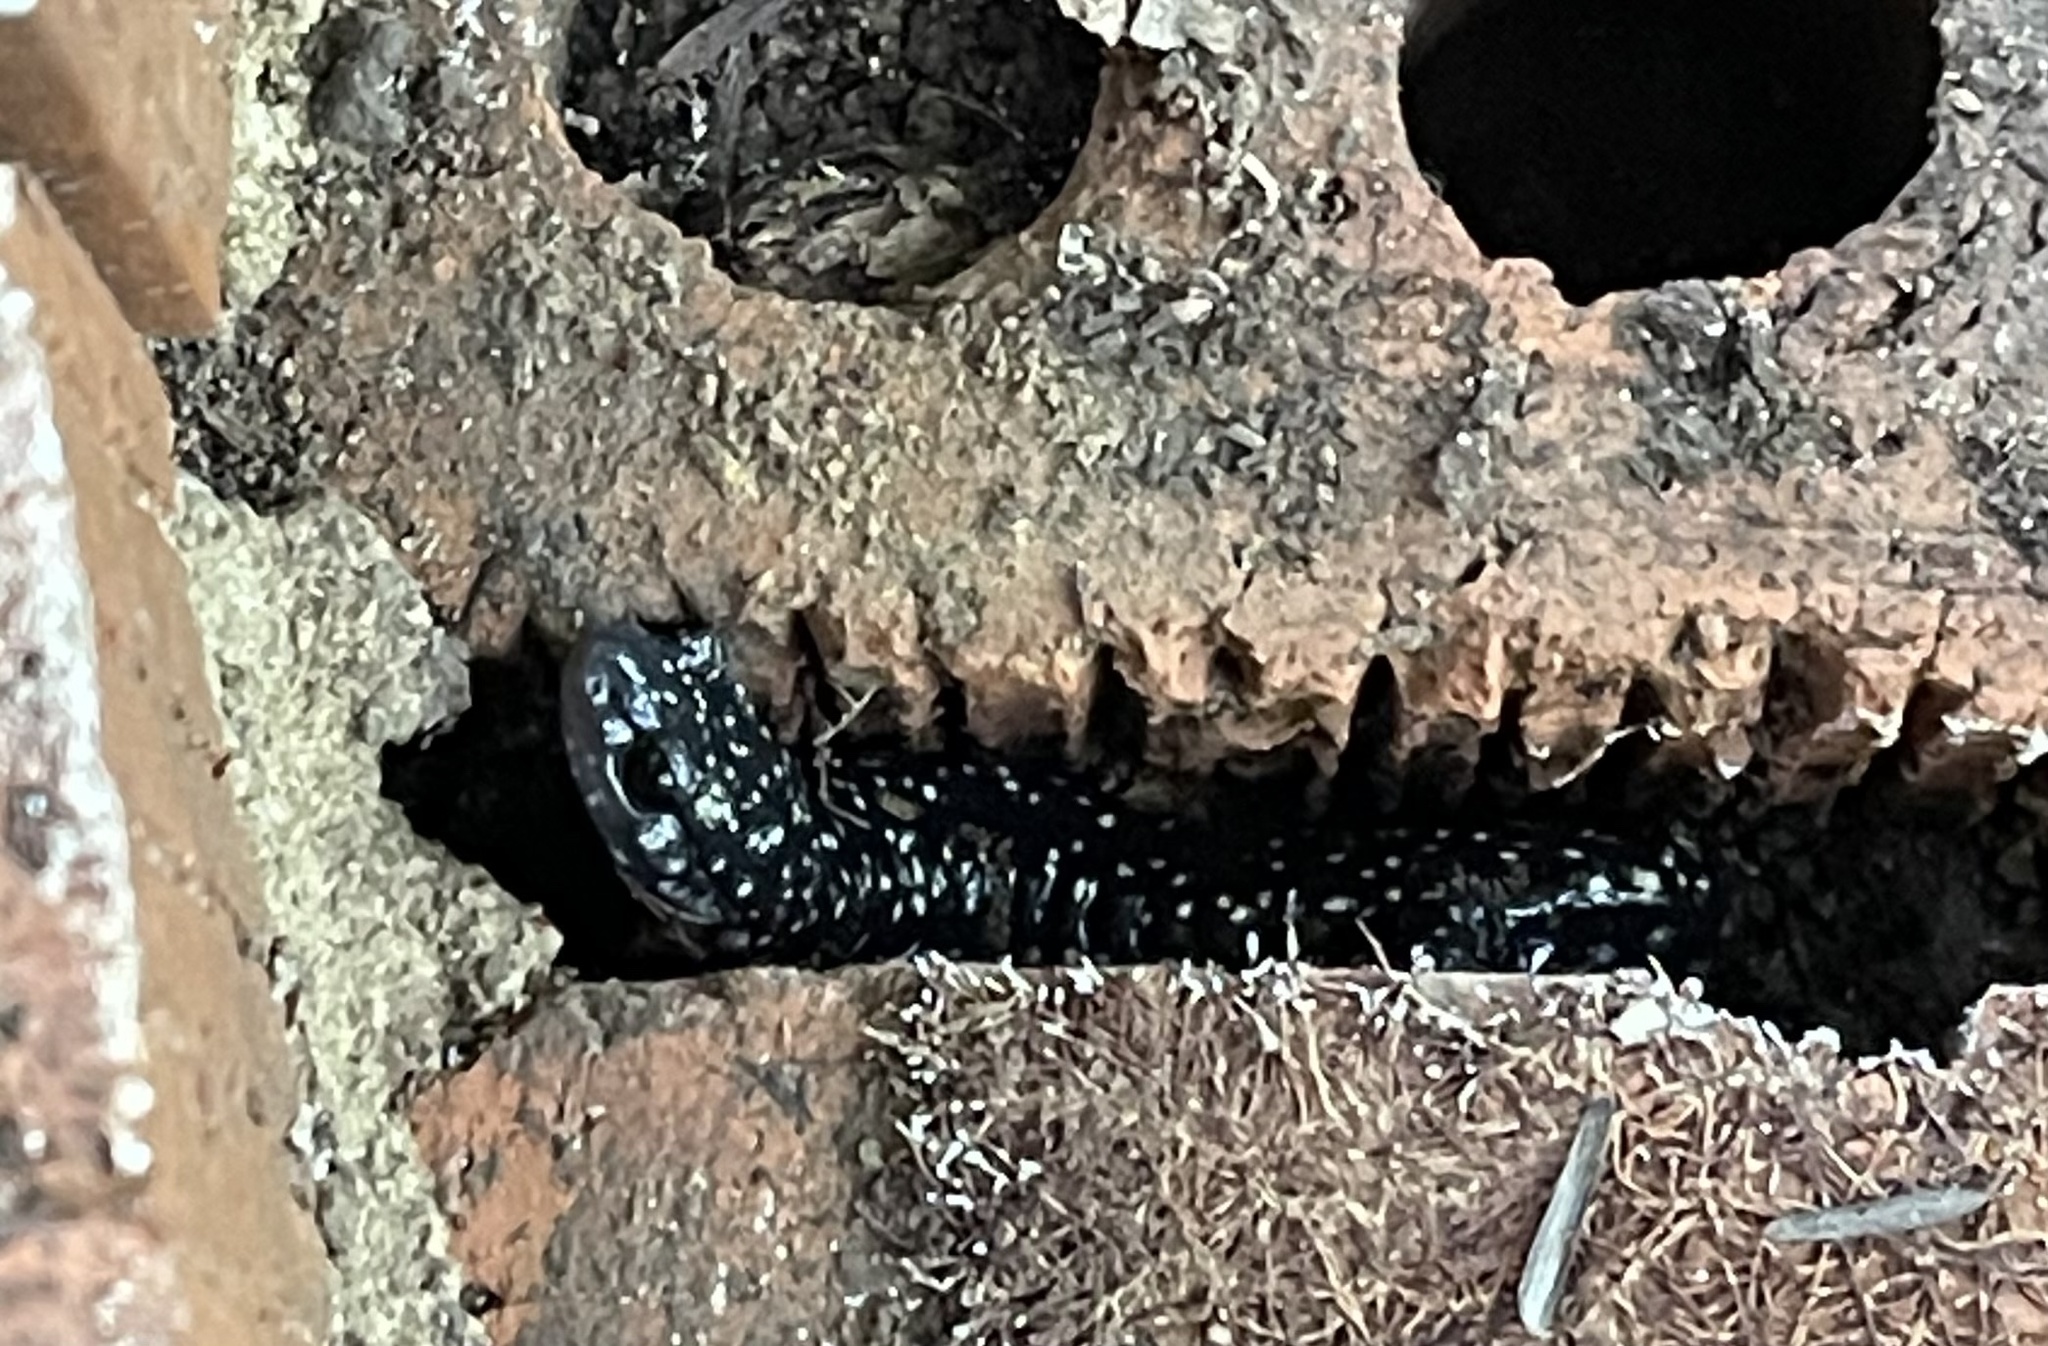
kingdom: Animalia
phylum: Chordata
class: Amphibia
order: Caudata
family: Plethodontidae
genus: Plethodon
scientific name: Plethodon glutinosus
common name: Northern slimy salamander
